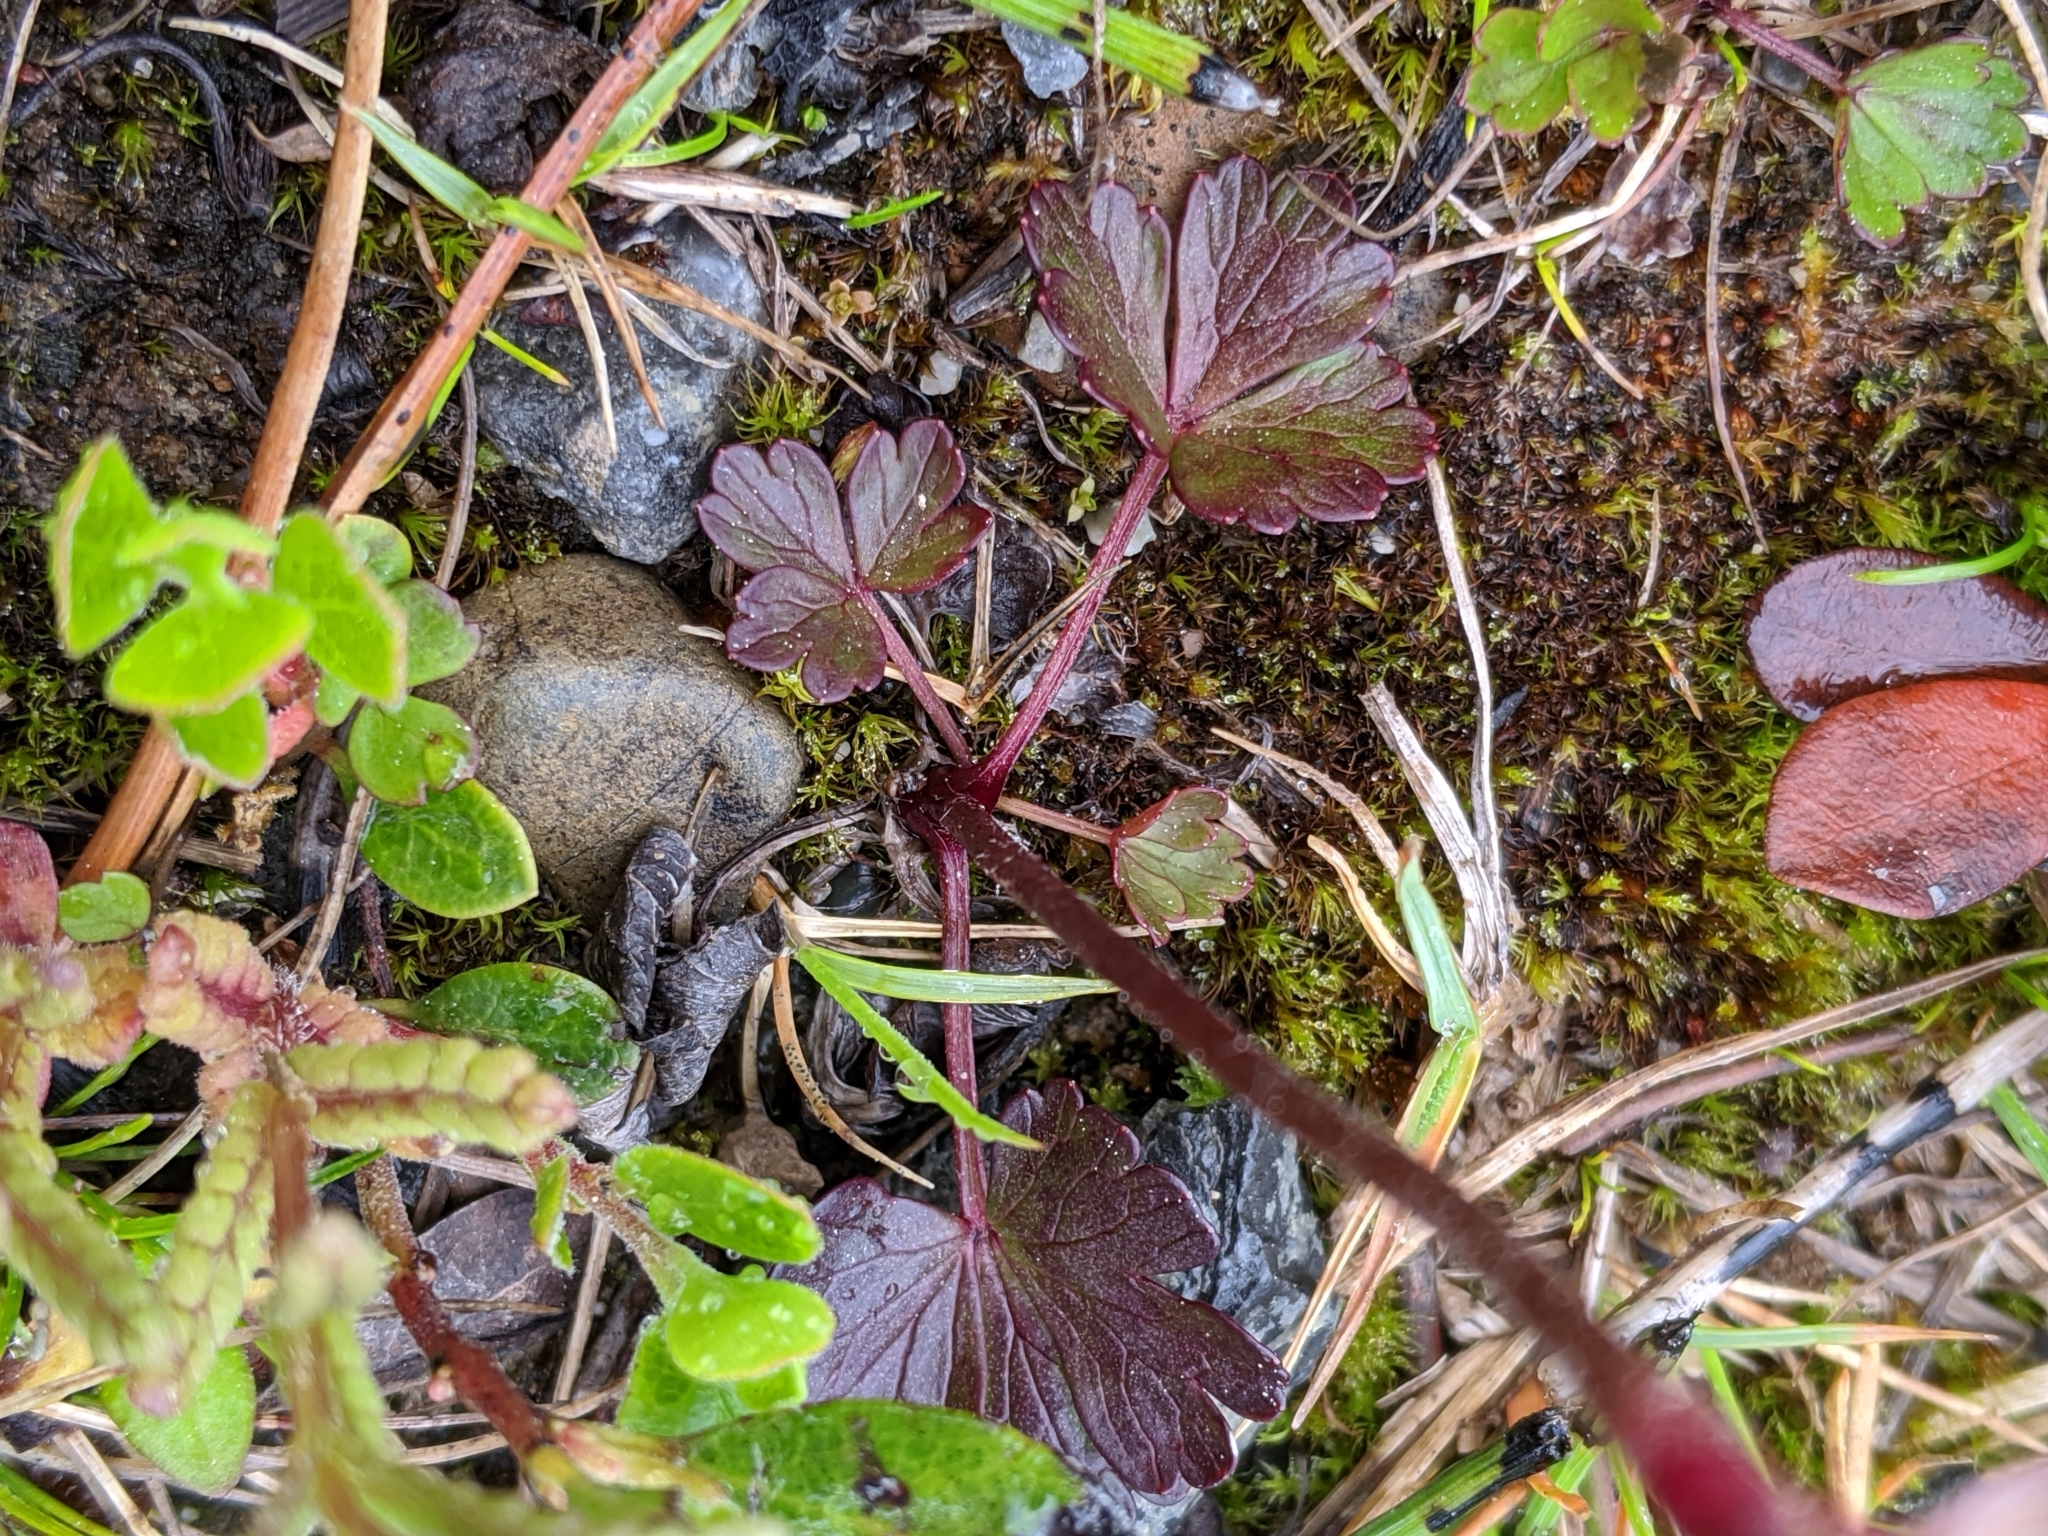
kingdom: Plantae
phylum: Tracheophyta
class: Magnoliopsida
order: Ranunculales
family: Ranunculaceae
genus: Anemone
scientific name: Anemone parviflora
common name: Northern anemone
